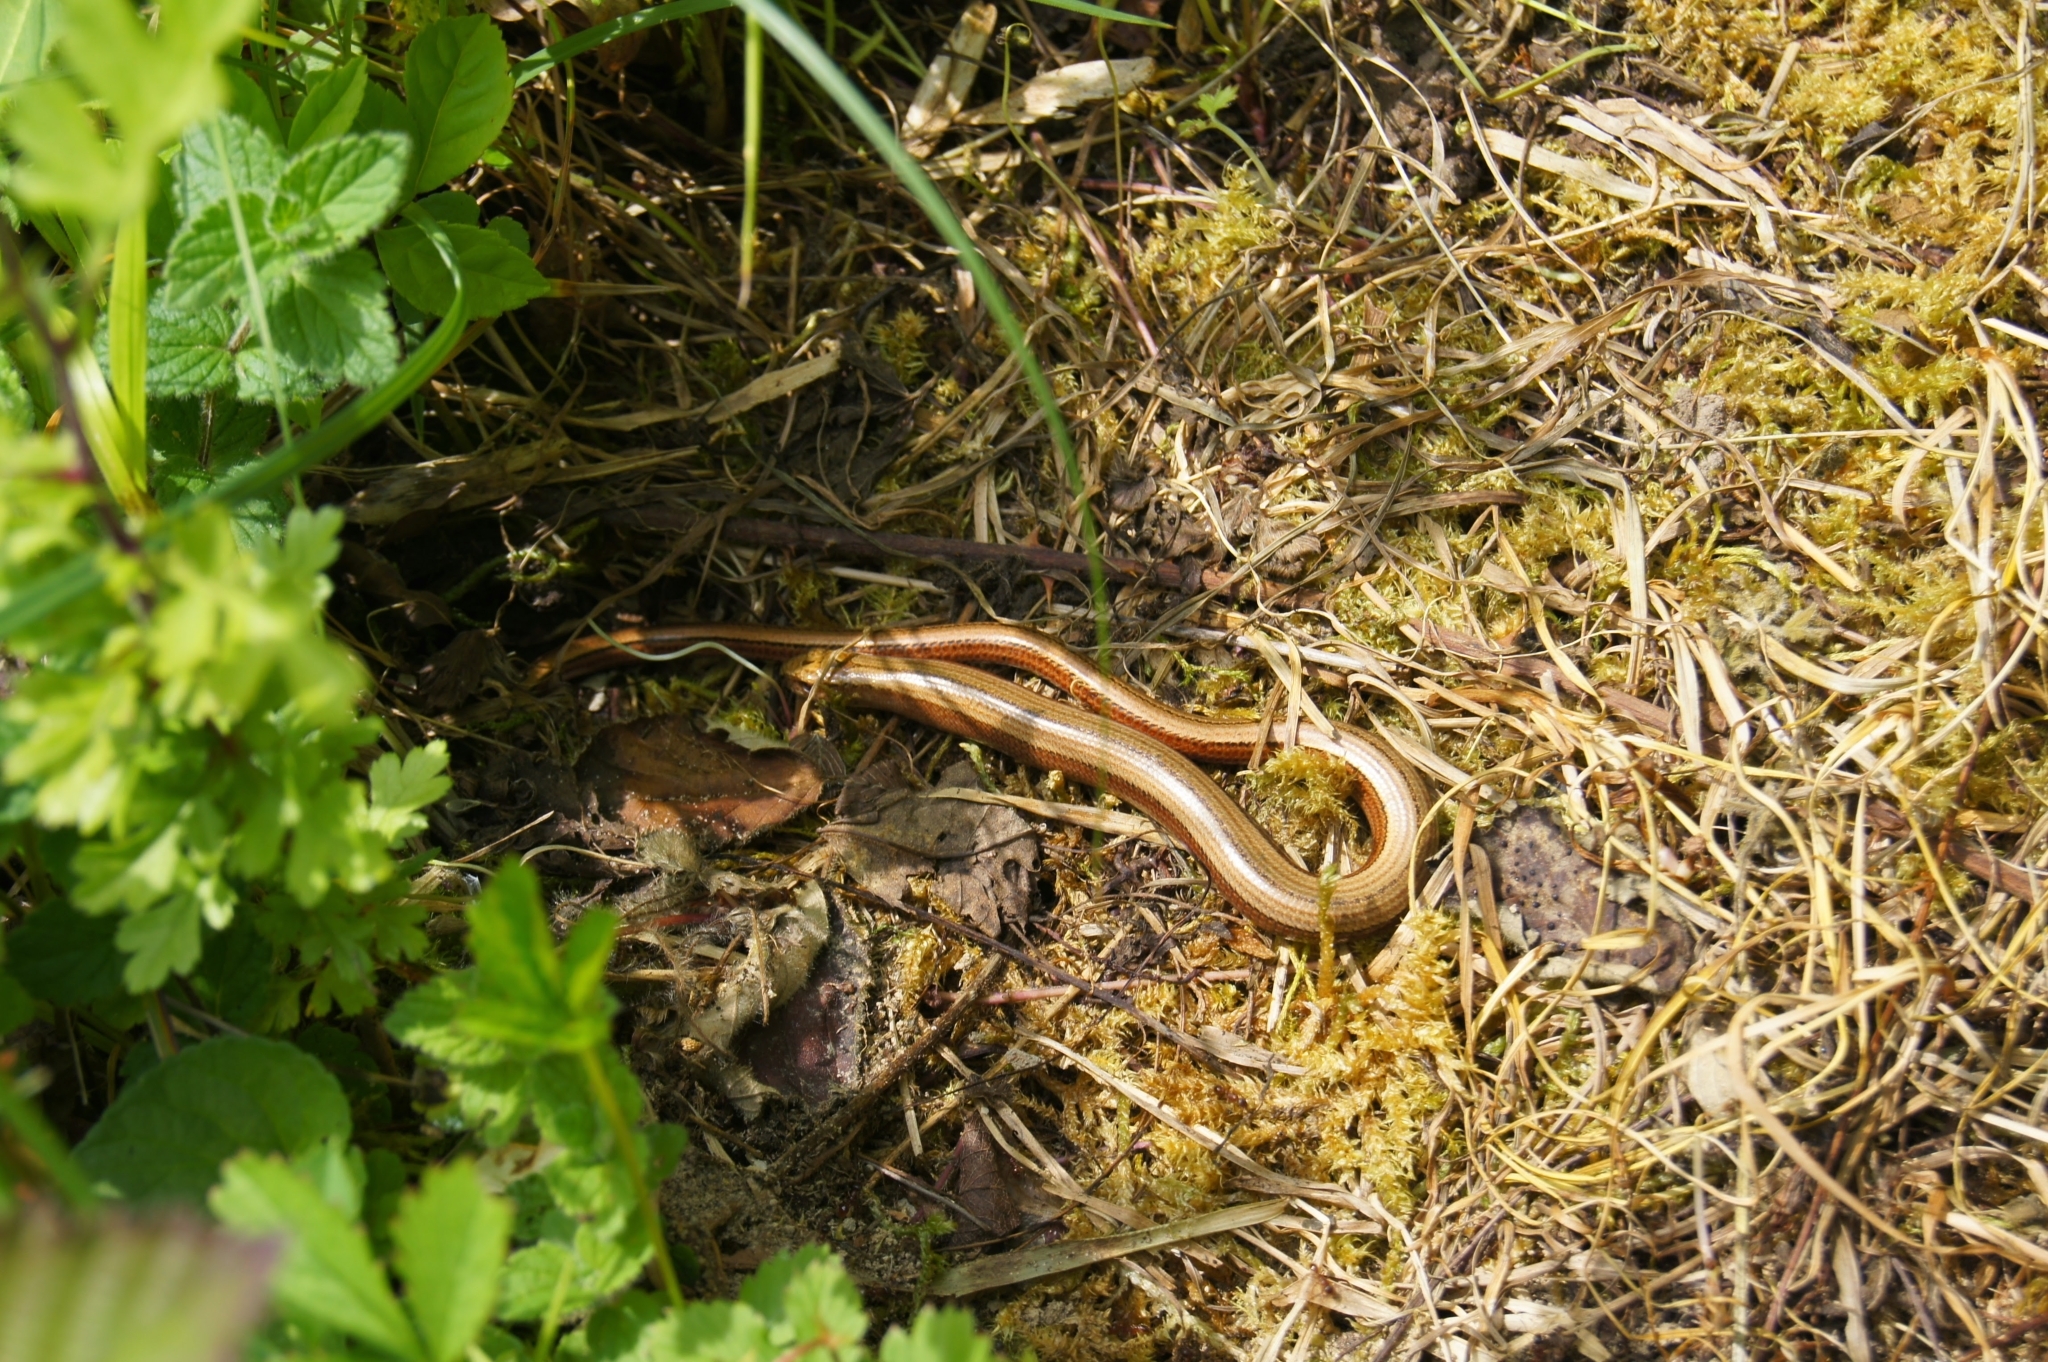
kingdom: Animalia
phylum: Chordata
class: Squamata
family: Anguidae
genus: Anguis
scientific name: Anguis fragilis
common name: Slow worm
